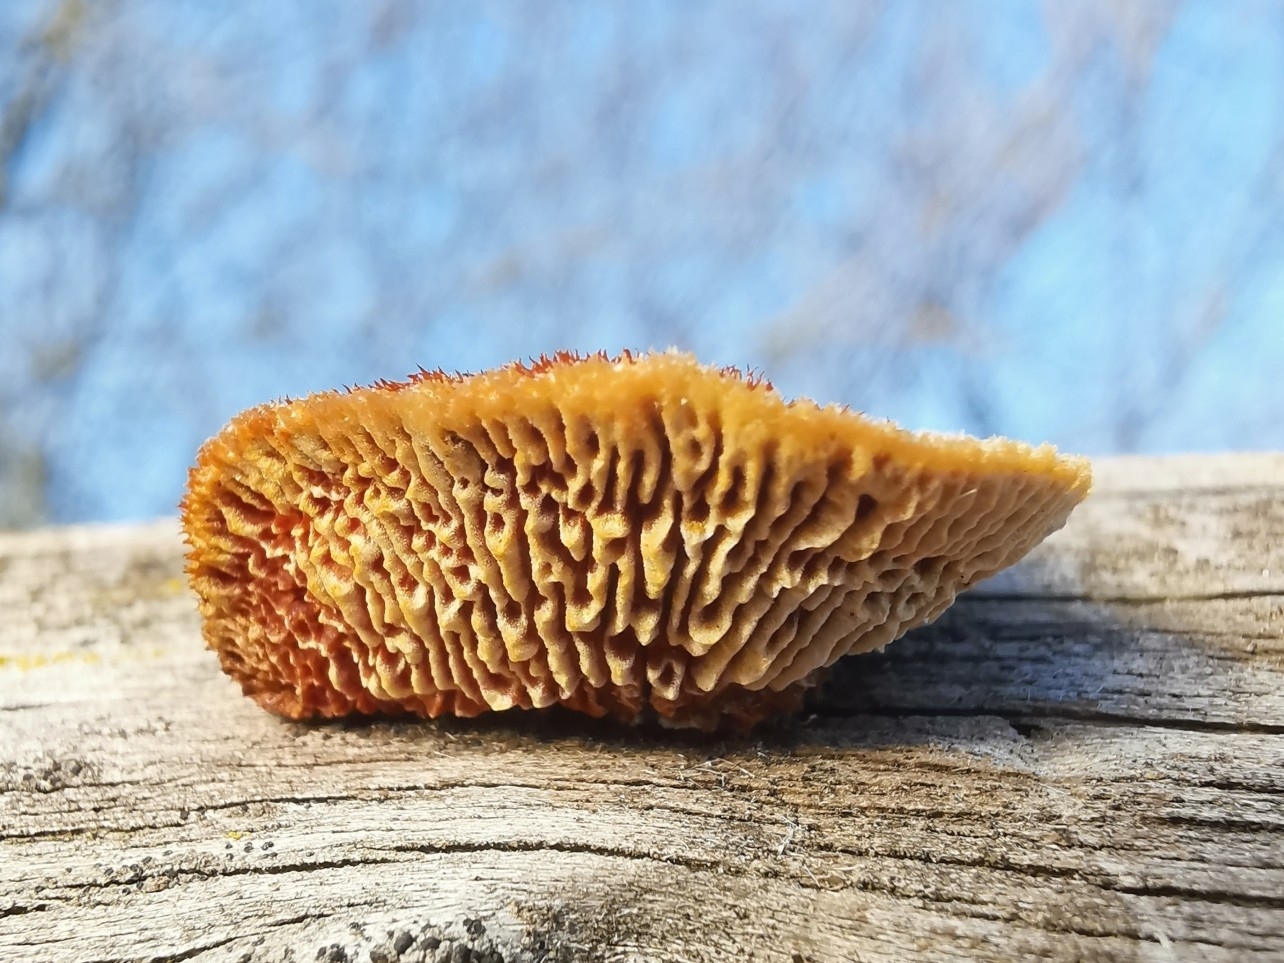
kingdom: Fungi
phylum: Basidiomycota
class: Agaricomycetes
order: Gloeophyllales
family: Gloeophyllaceae
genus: Gloeophyllum
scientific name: Gloeophyllum sepiarium
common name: Conifer mazegill
